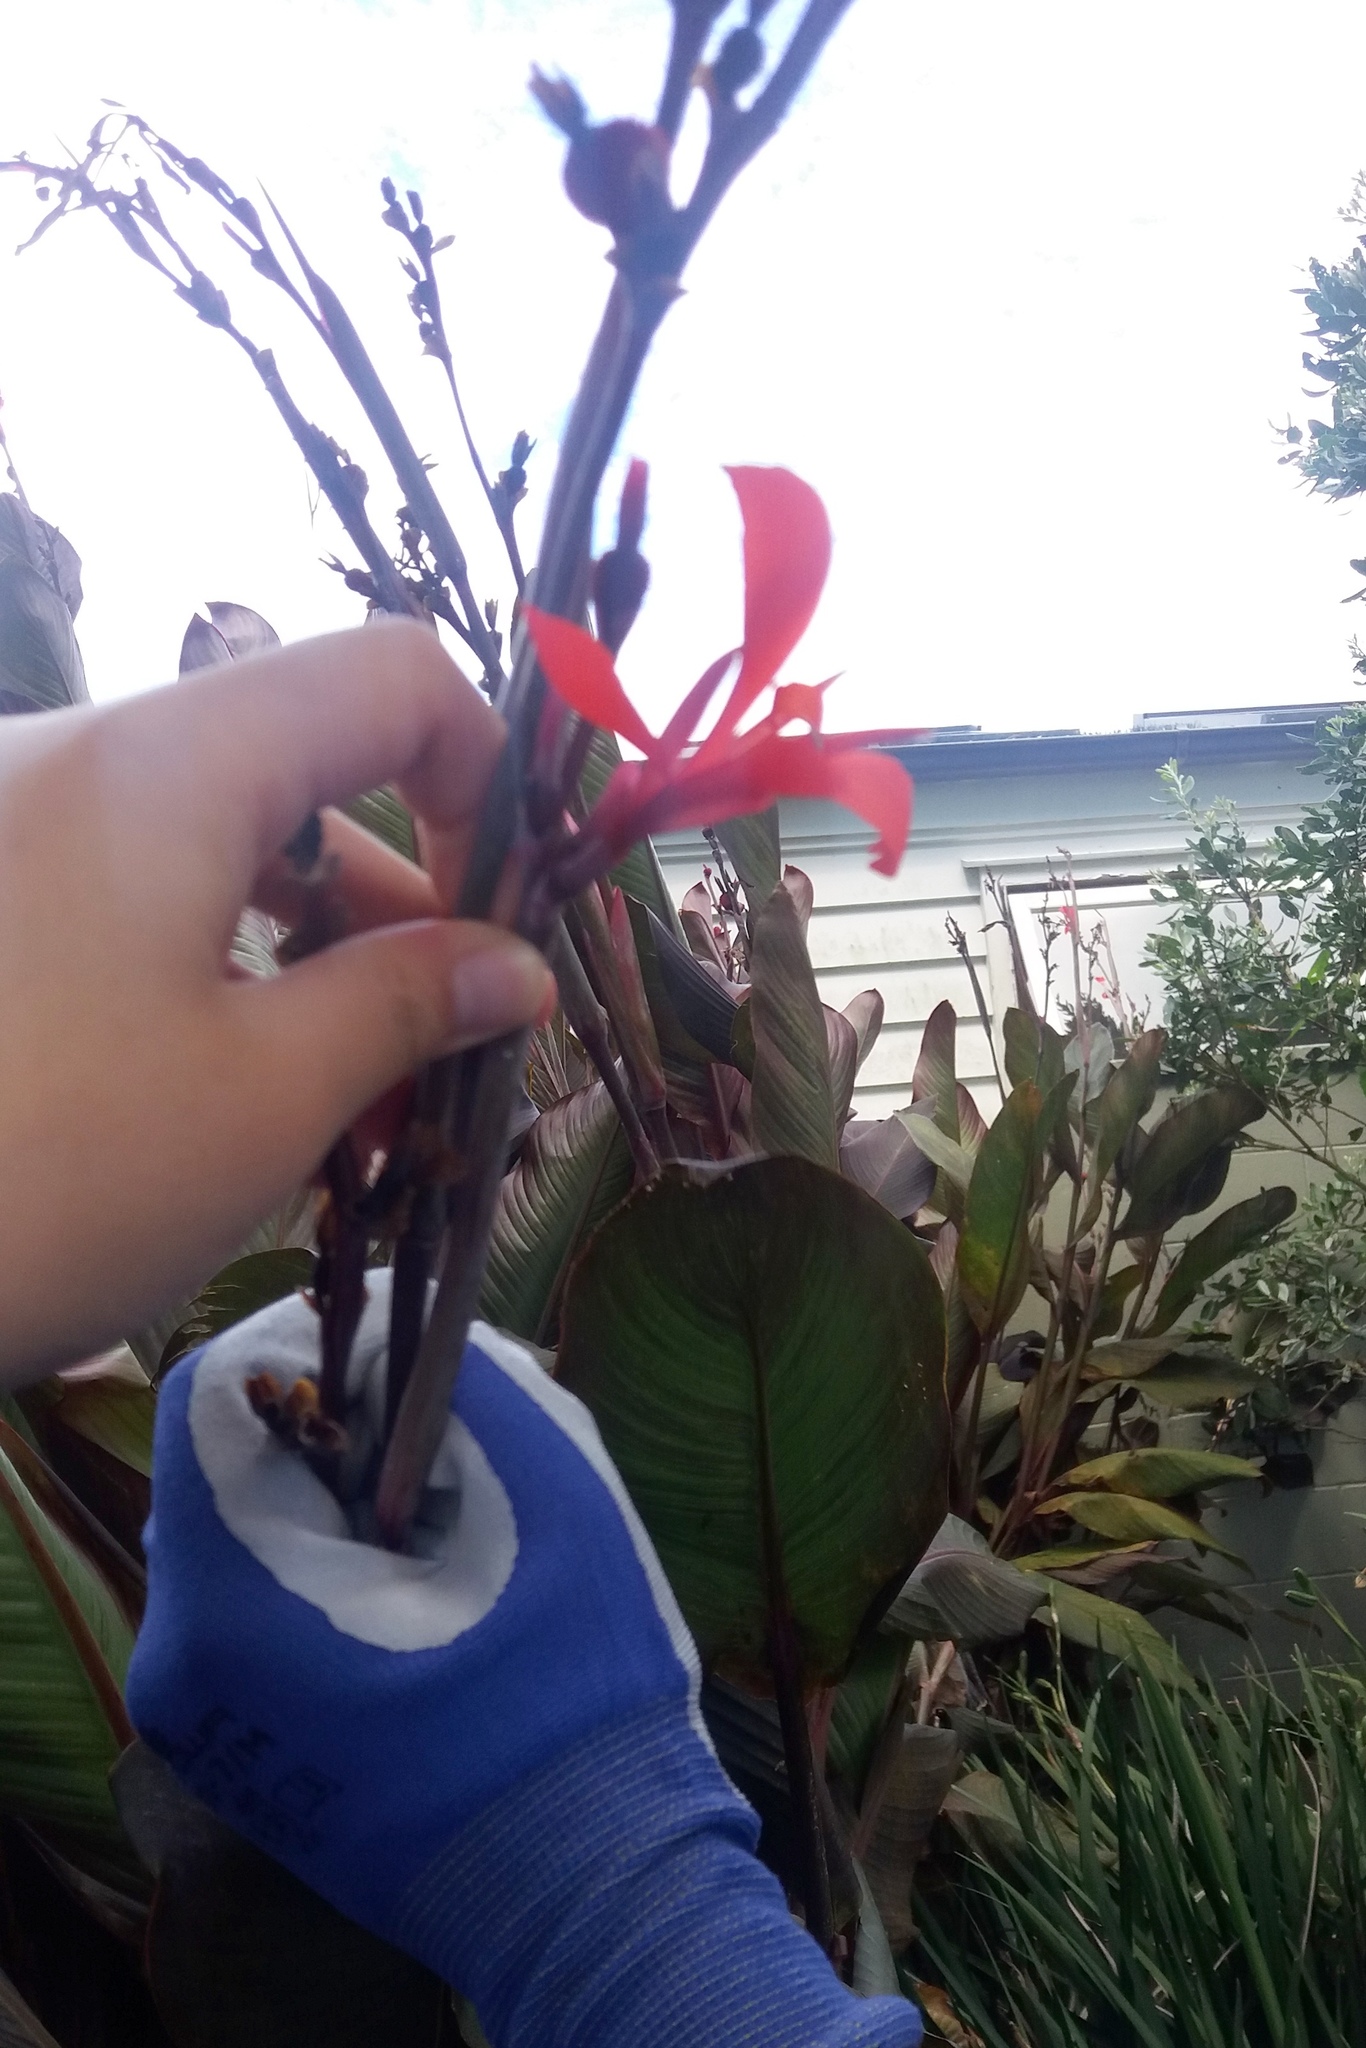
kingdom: Plantae
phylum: Tracheophyta
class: Liliopsida
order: Zingiberales
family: Cannaceae
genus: Canna
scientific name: Canna indica
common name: Indian shot
